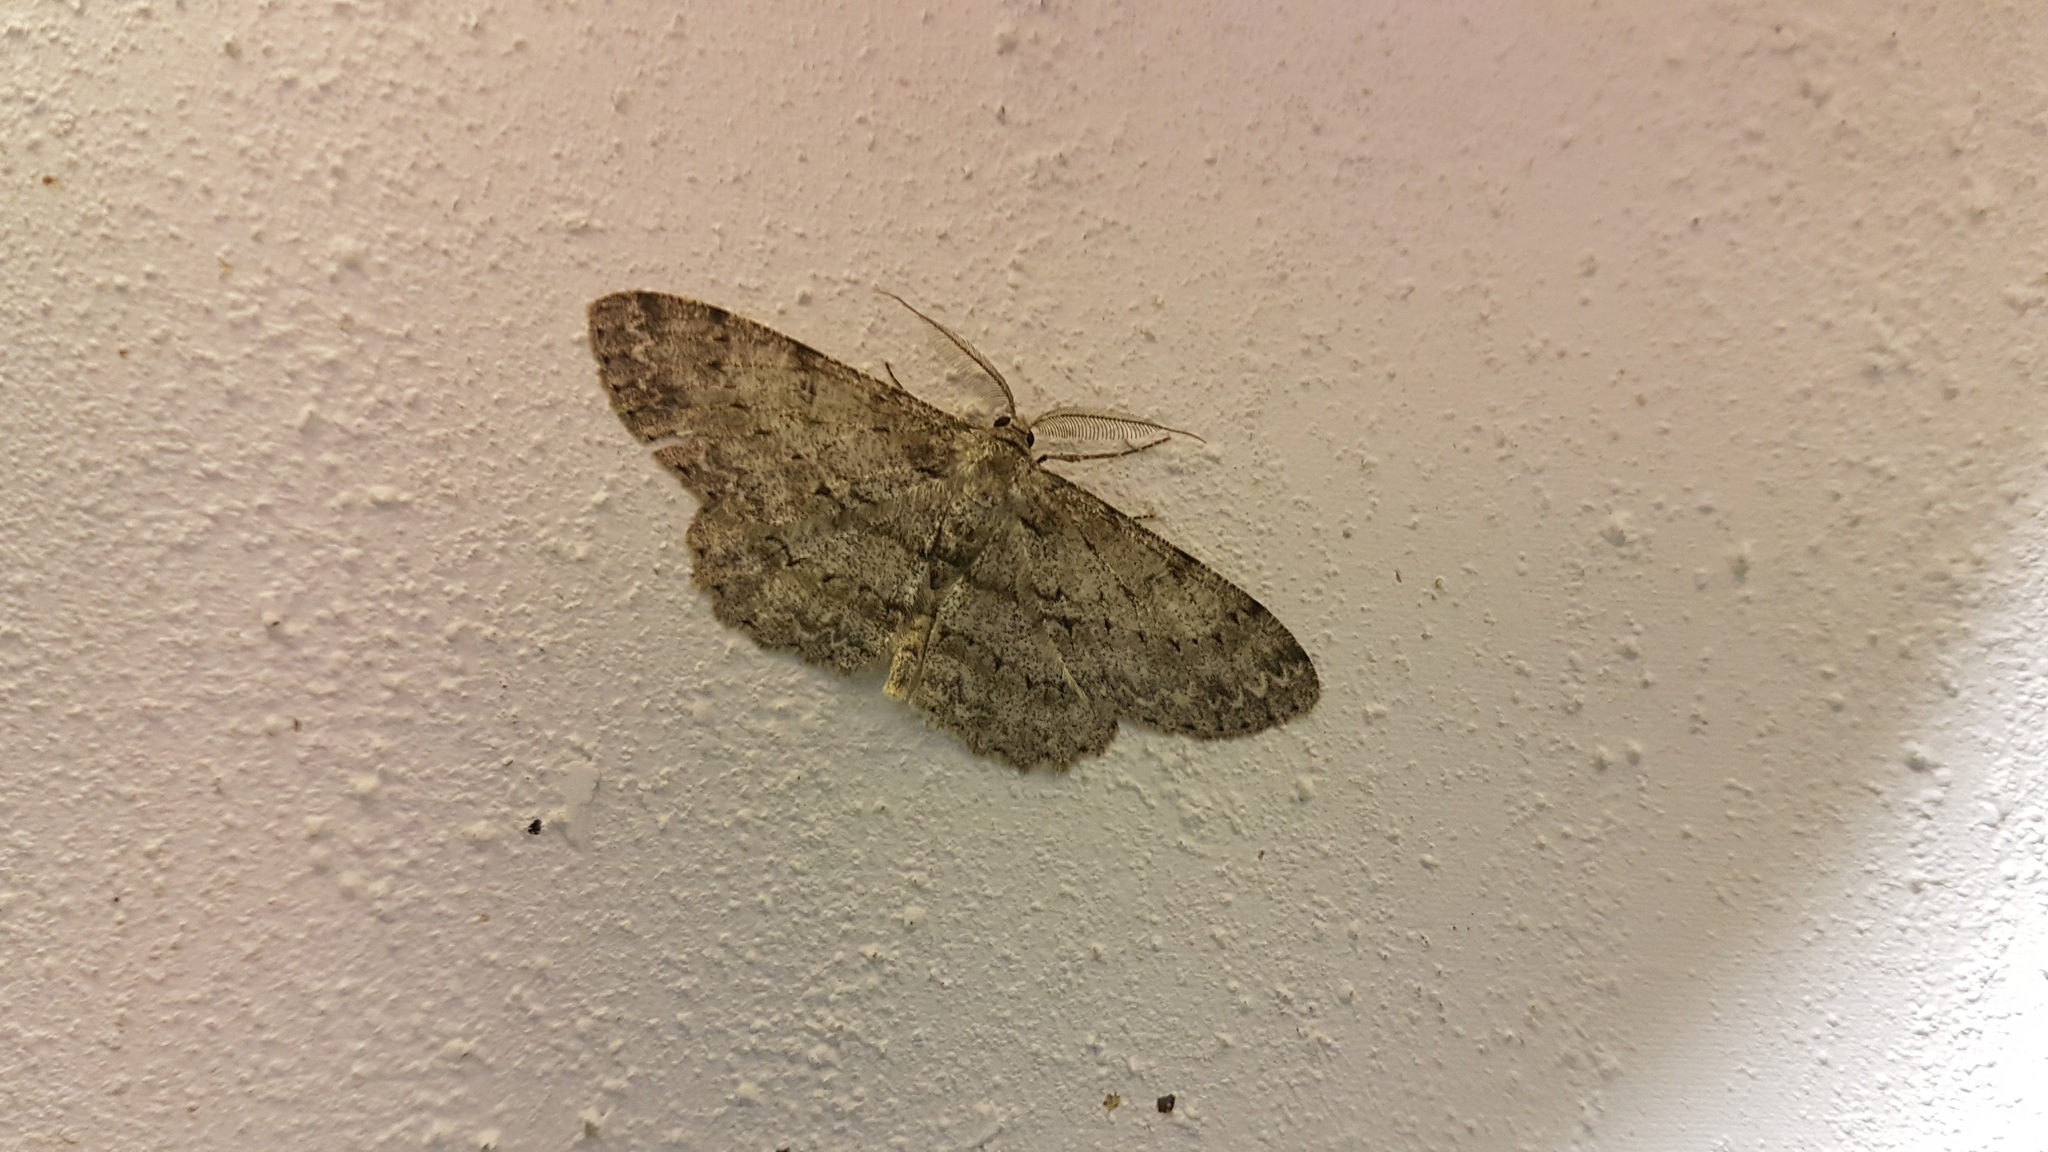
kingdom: Animalia
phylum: Arthropoda
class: Insecta
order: Lepidoptera
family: Geometridae
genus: Hypomecis
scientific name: Hypomecis punctinalis
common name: Pale oak beauty
